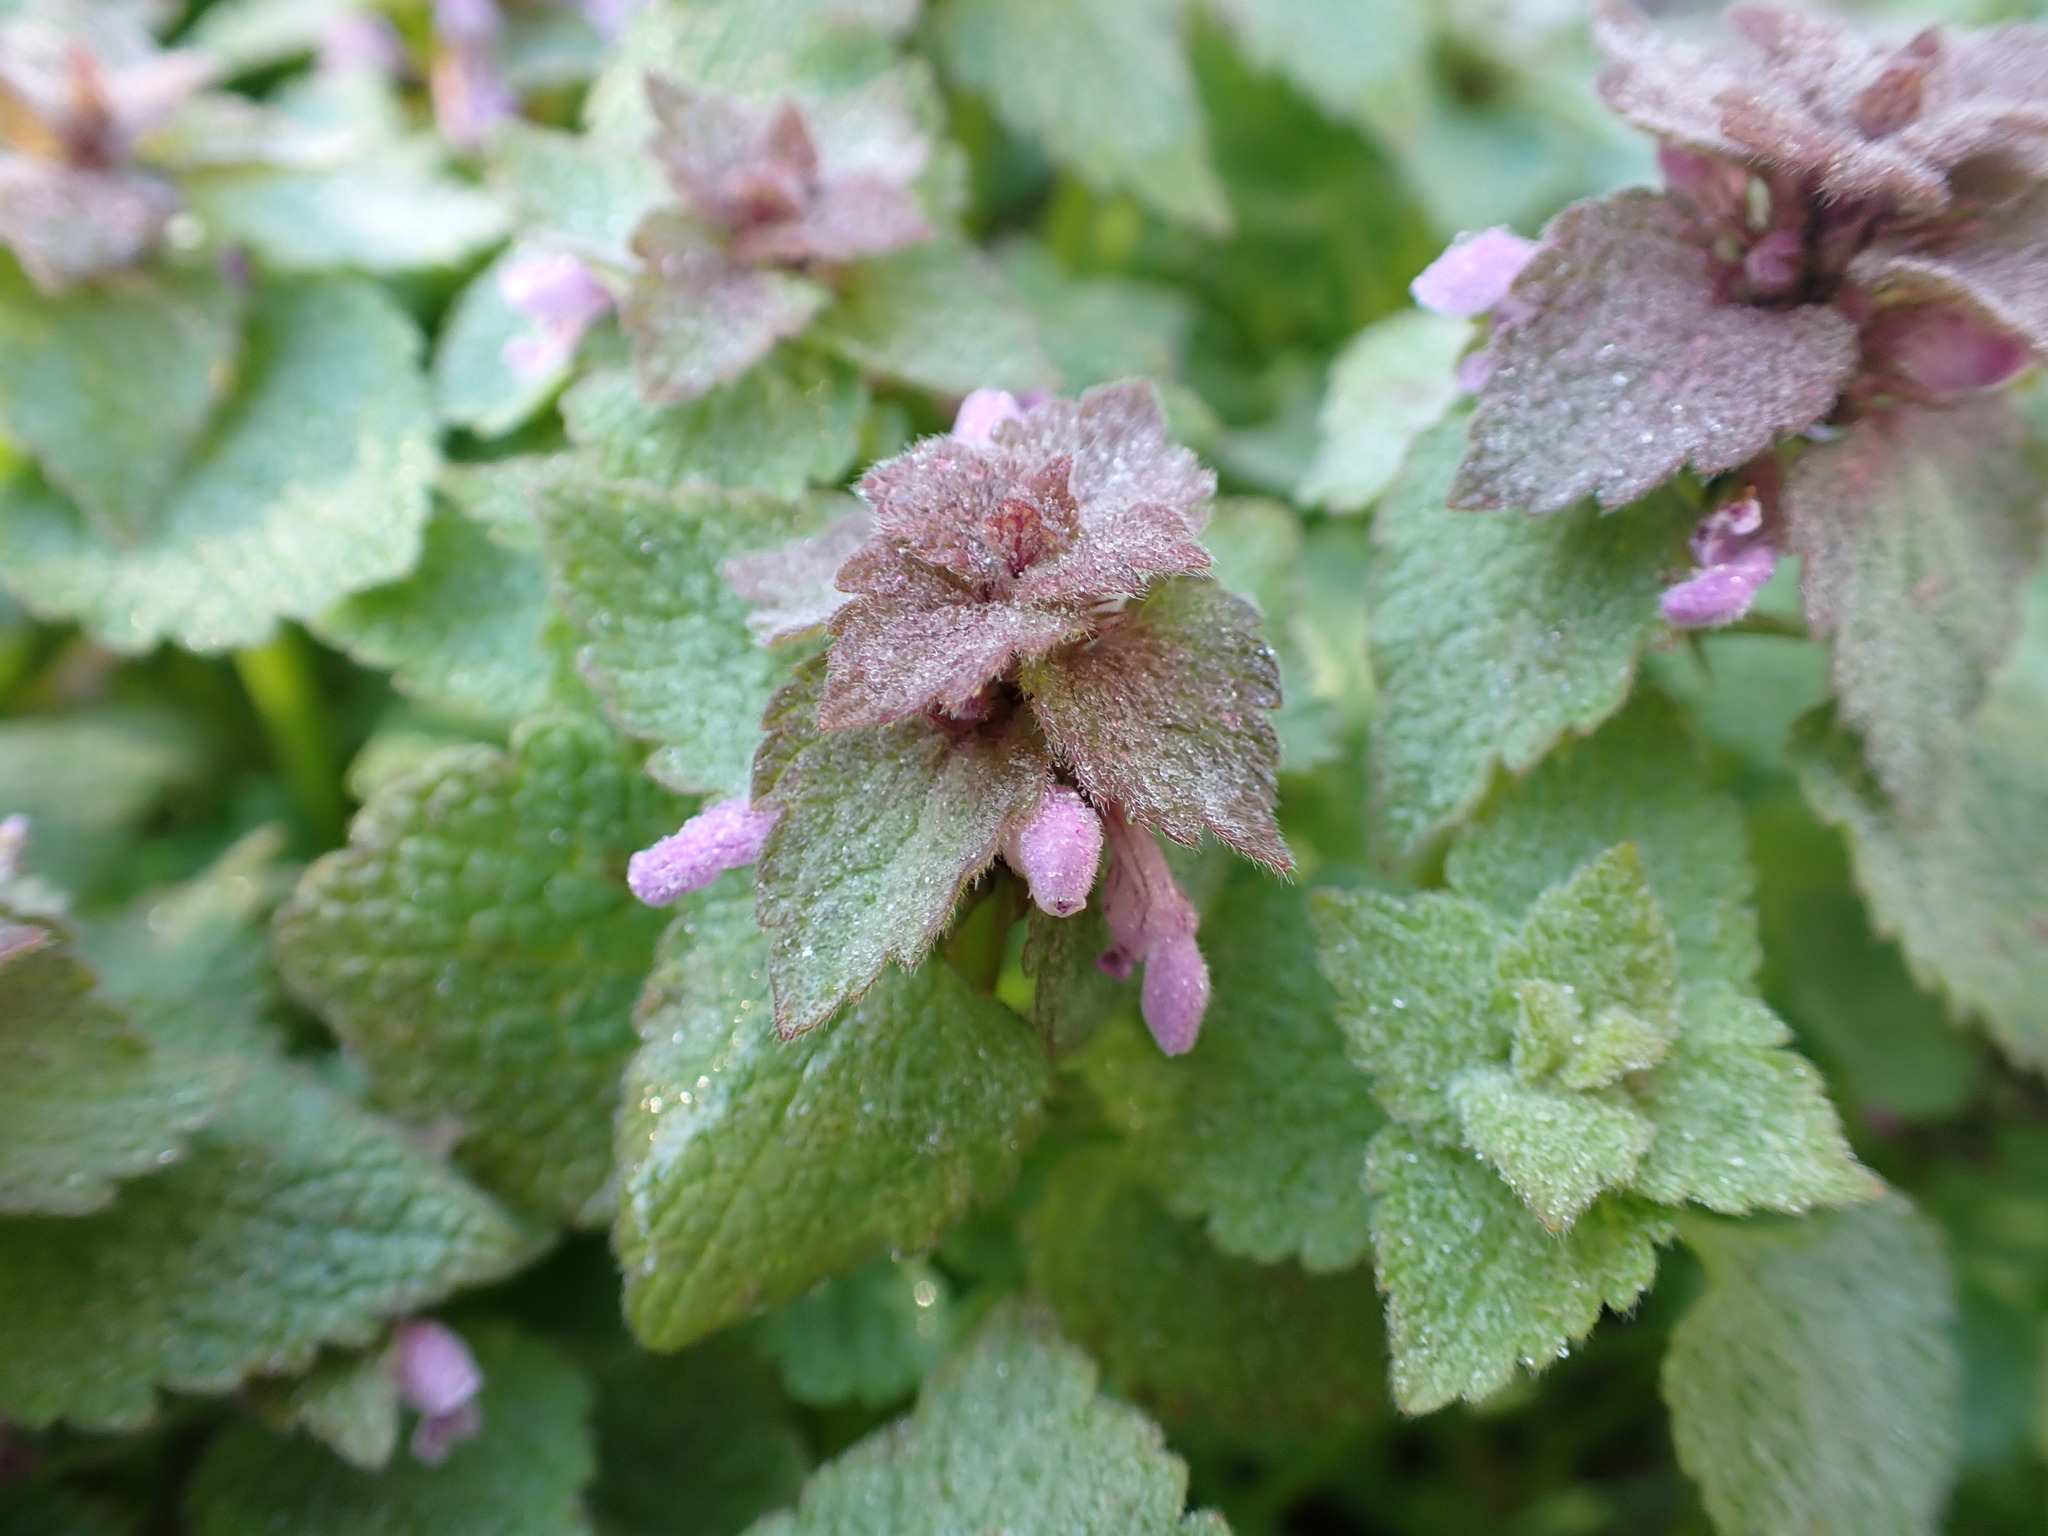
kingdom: Plantae
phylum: Tracheophyta
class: Magnoliopsida
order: Lamiales
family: Lamiaceae
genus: Lamium
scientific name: Lamium purpureum
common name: Red dead-nettle
